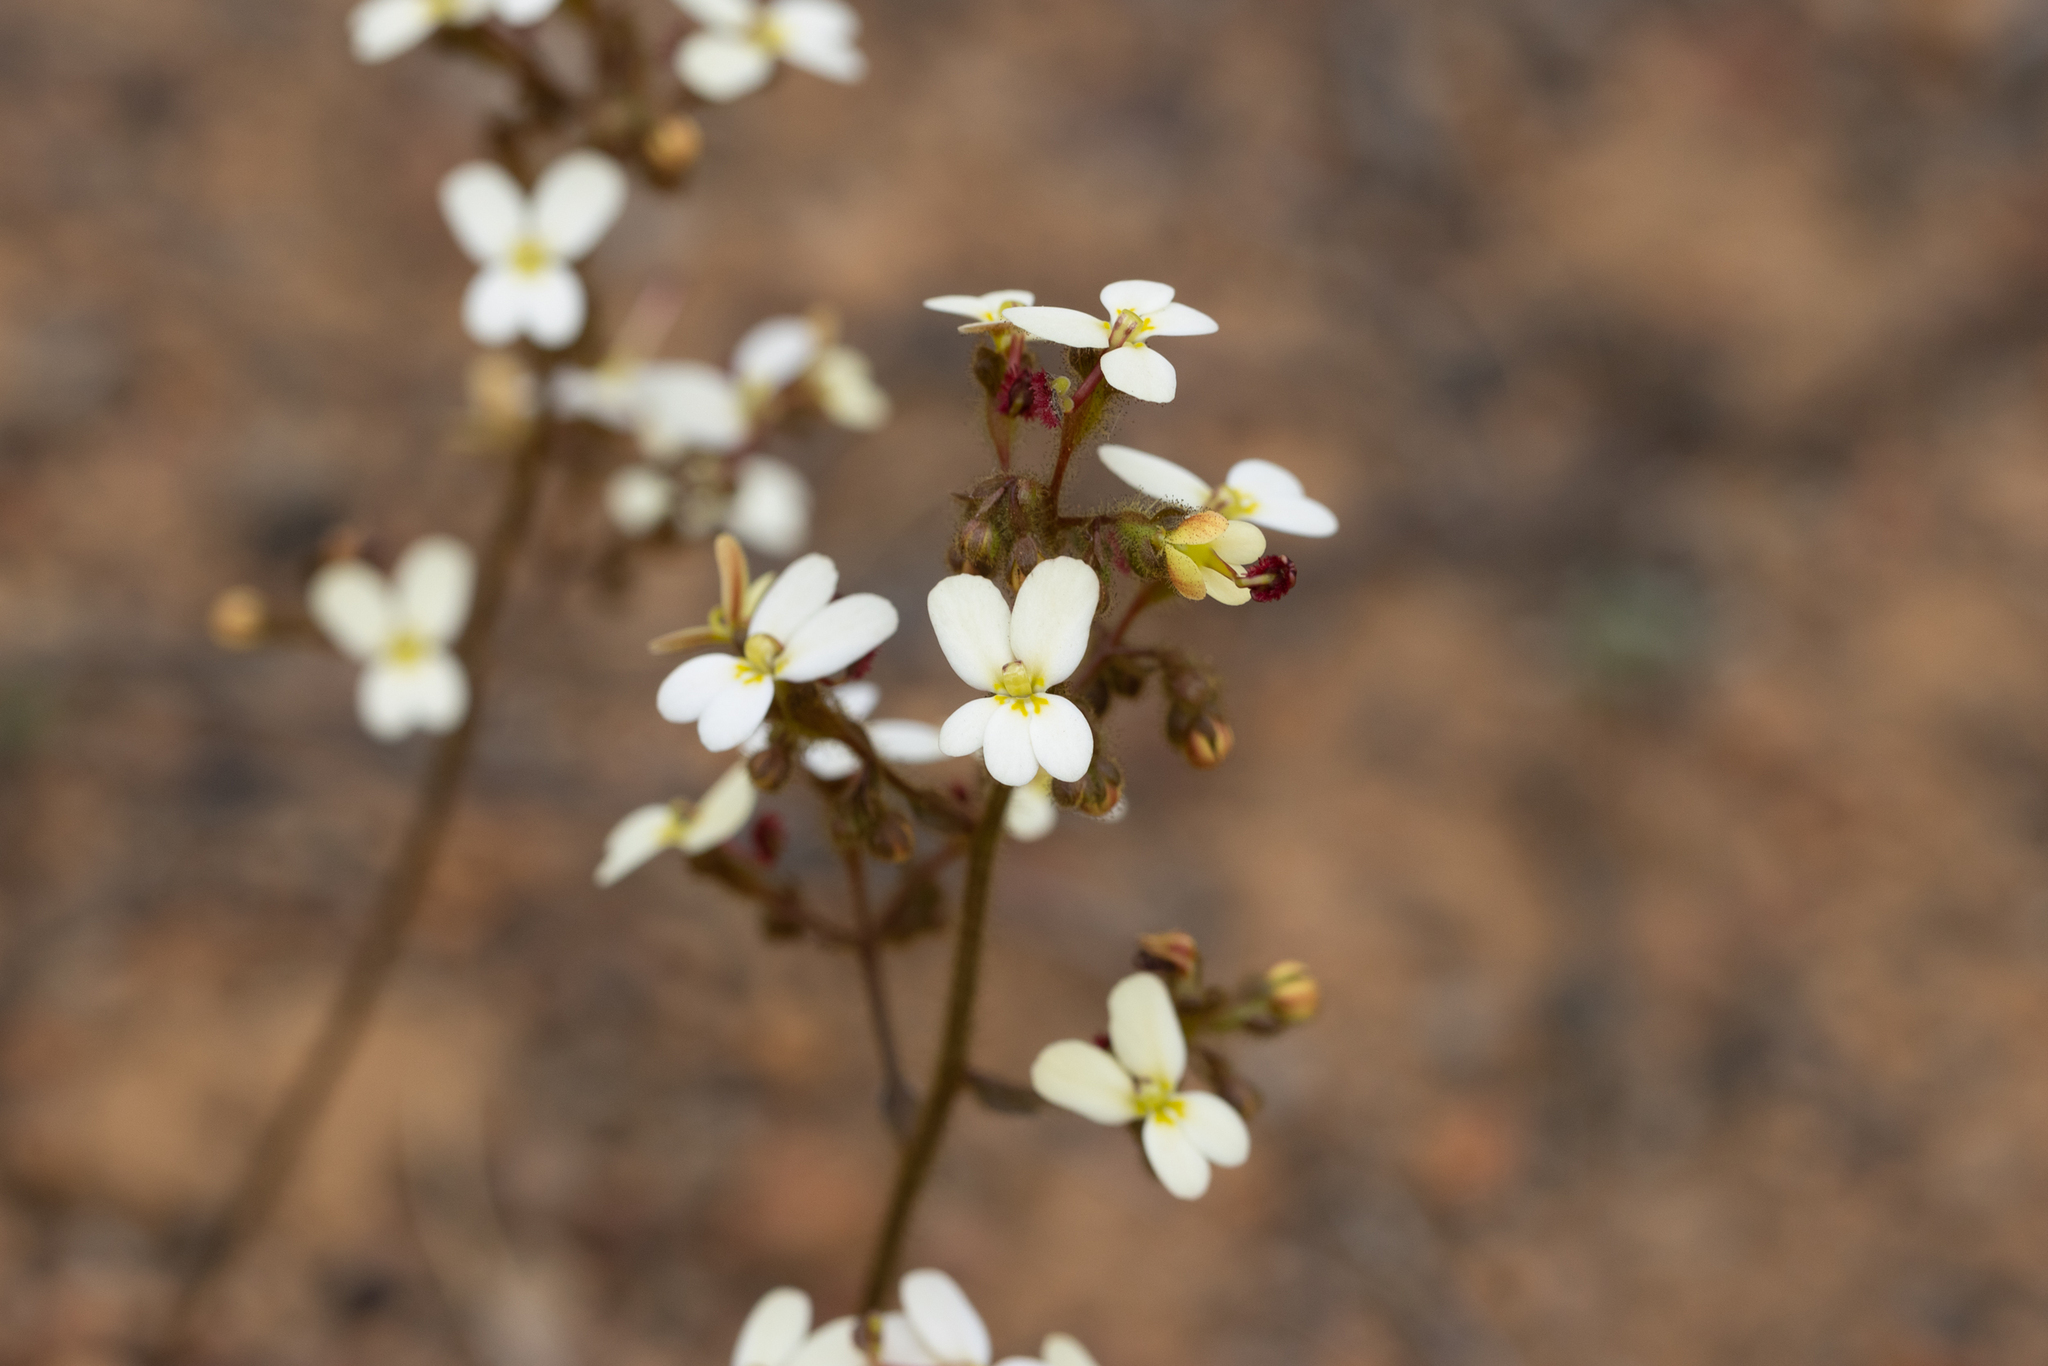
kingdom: Plantae
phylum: Tracheophyta
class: Magnoliopsida
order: Asterales
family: Stylidiaceae
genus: Stylidium
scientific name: Stylidium ciliatum
